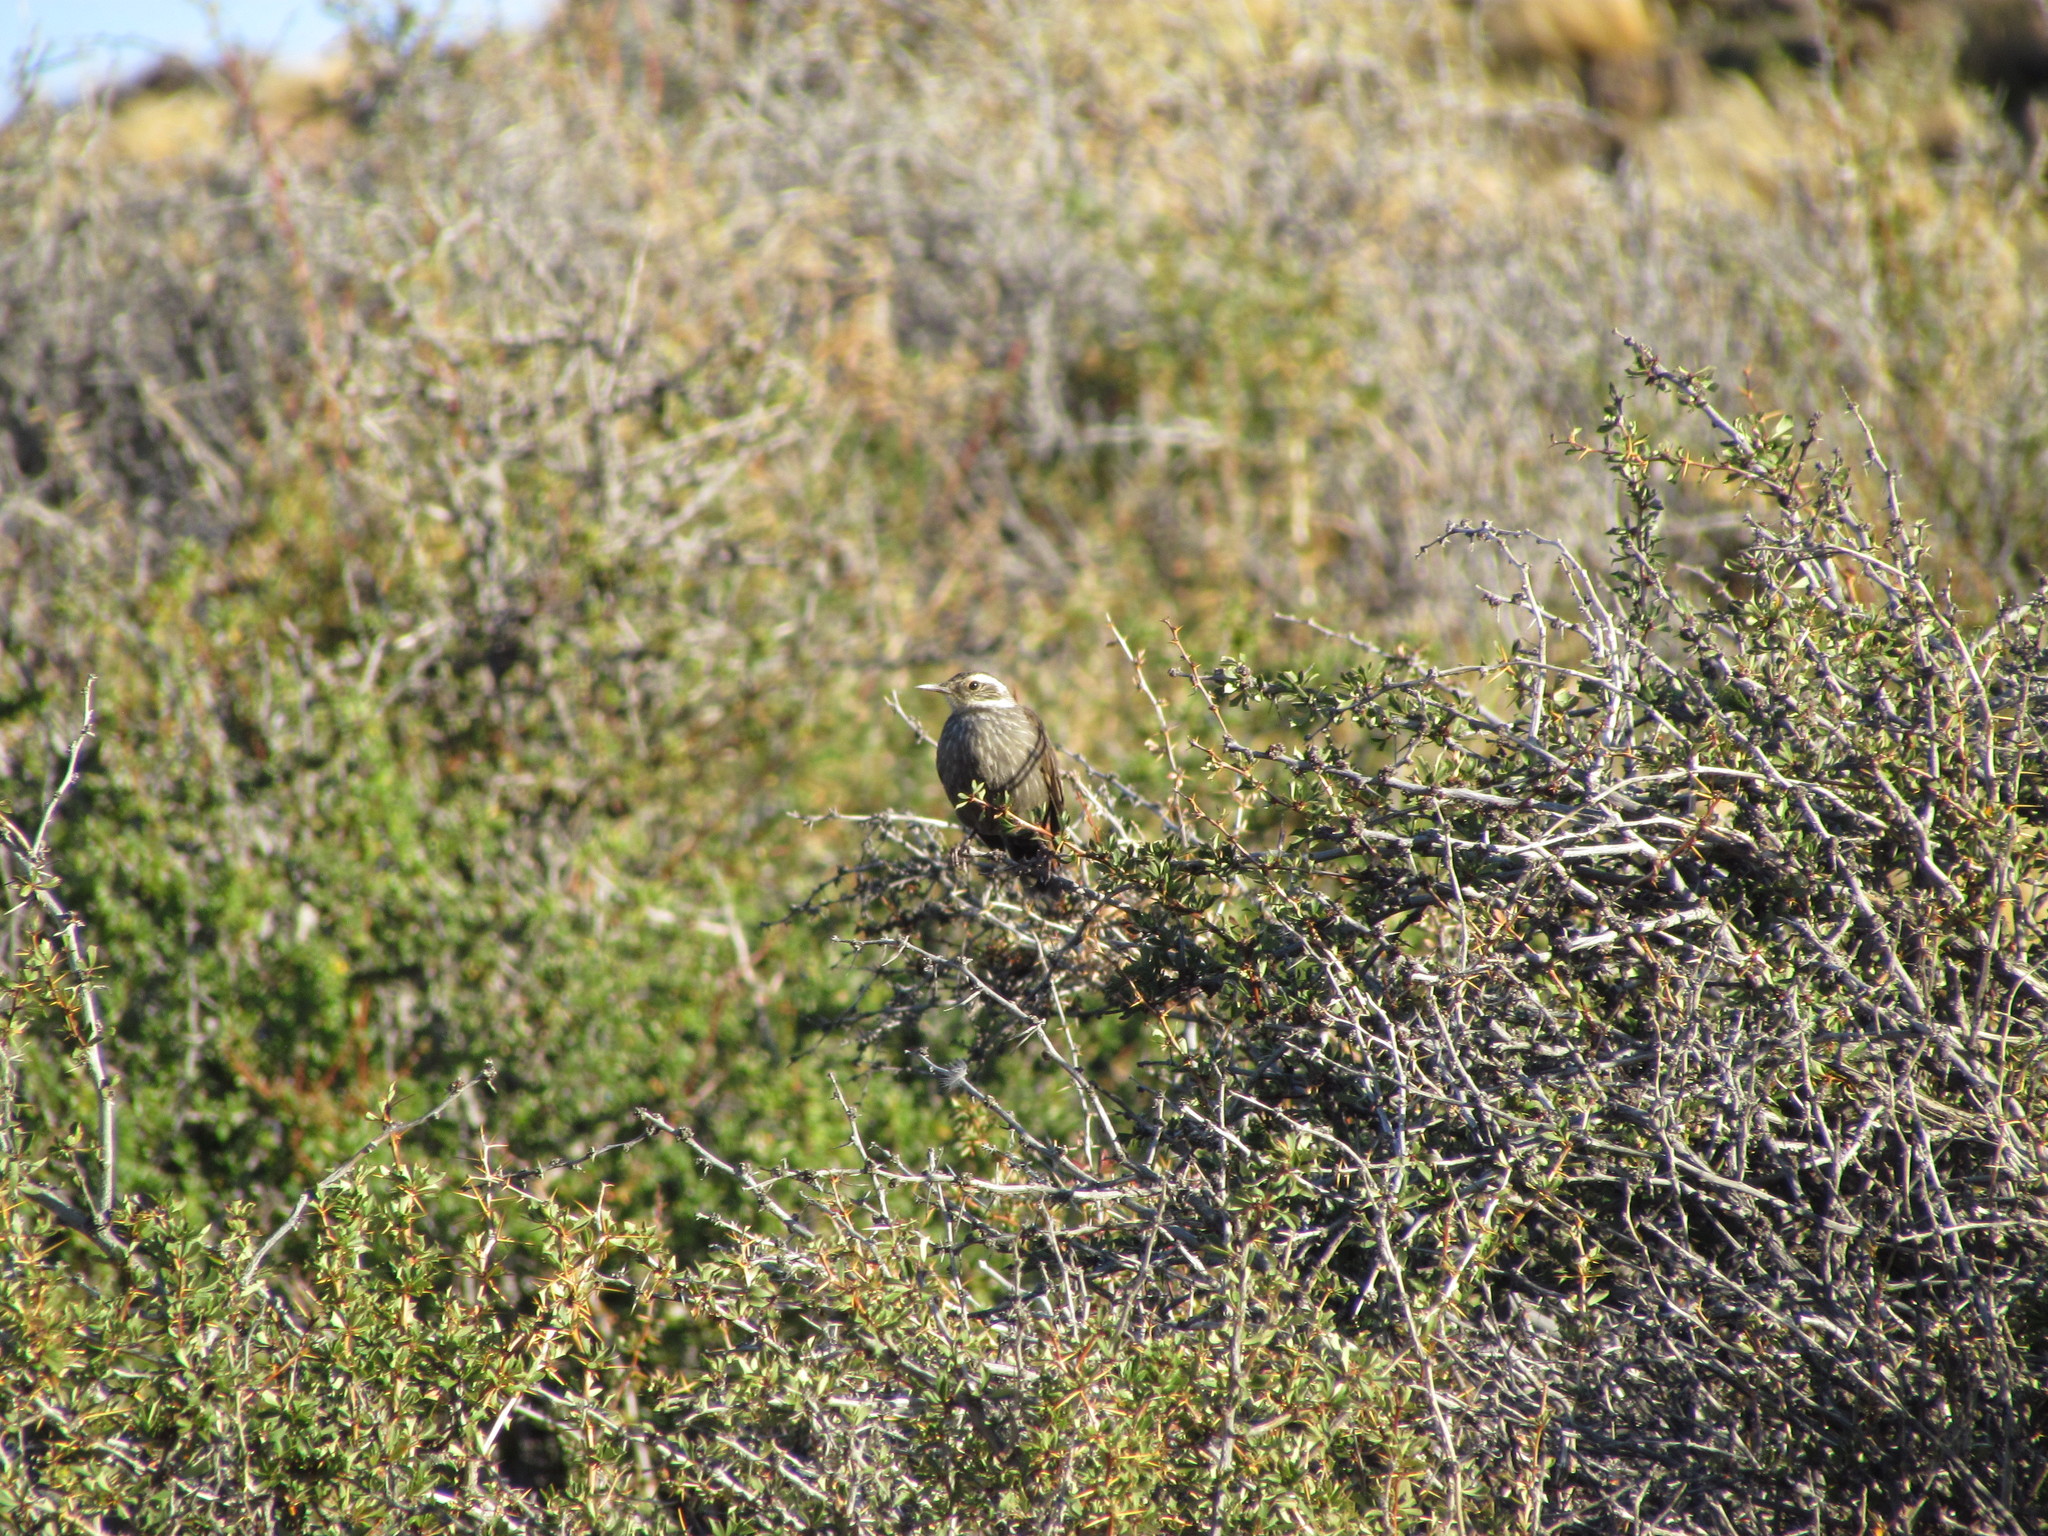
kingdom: Animalia
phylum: Chordata
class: Aves
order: Passeriformes
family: Furnariidae
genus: Cinclodes
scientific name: Cinclodes patagonicus
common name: Dark-bellied cinclodes
